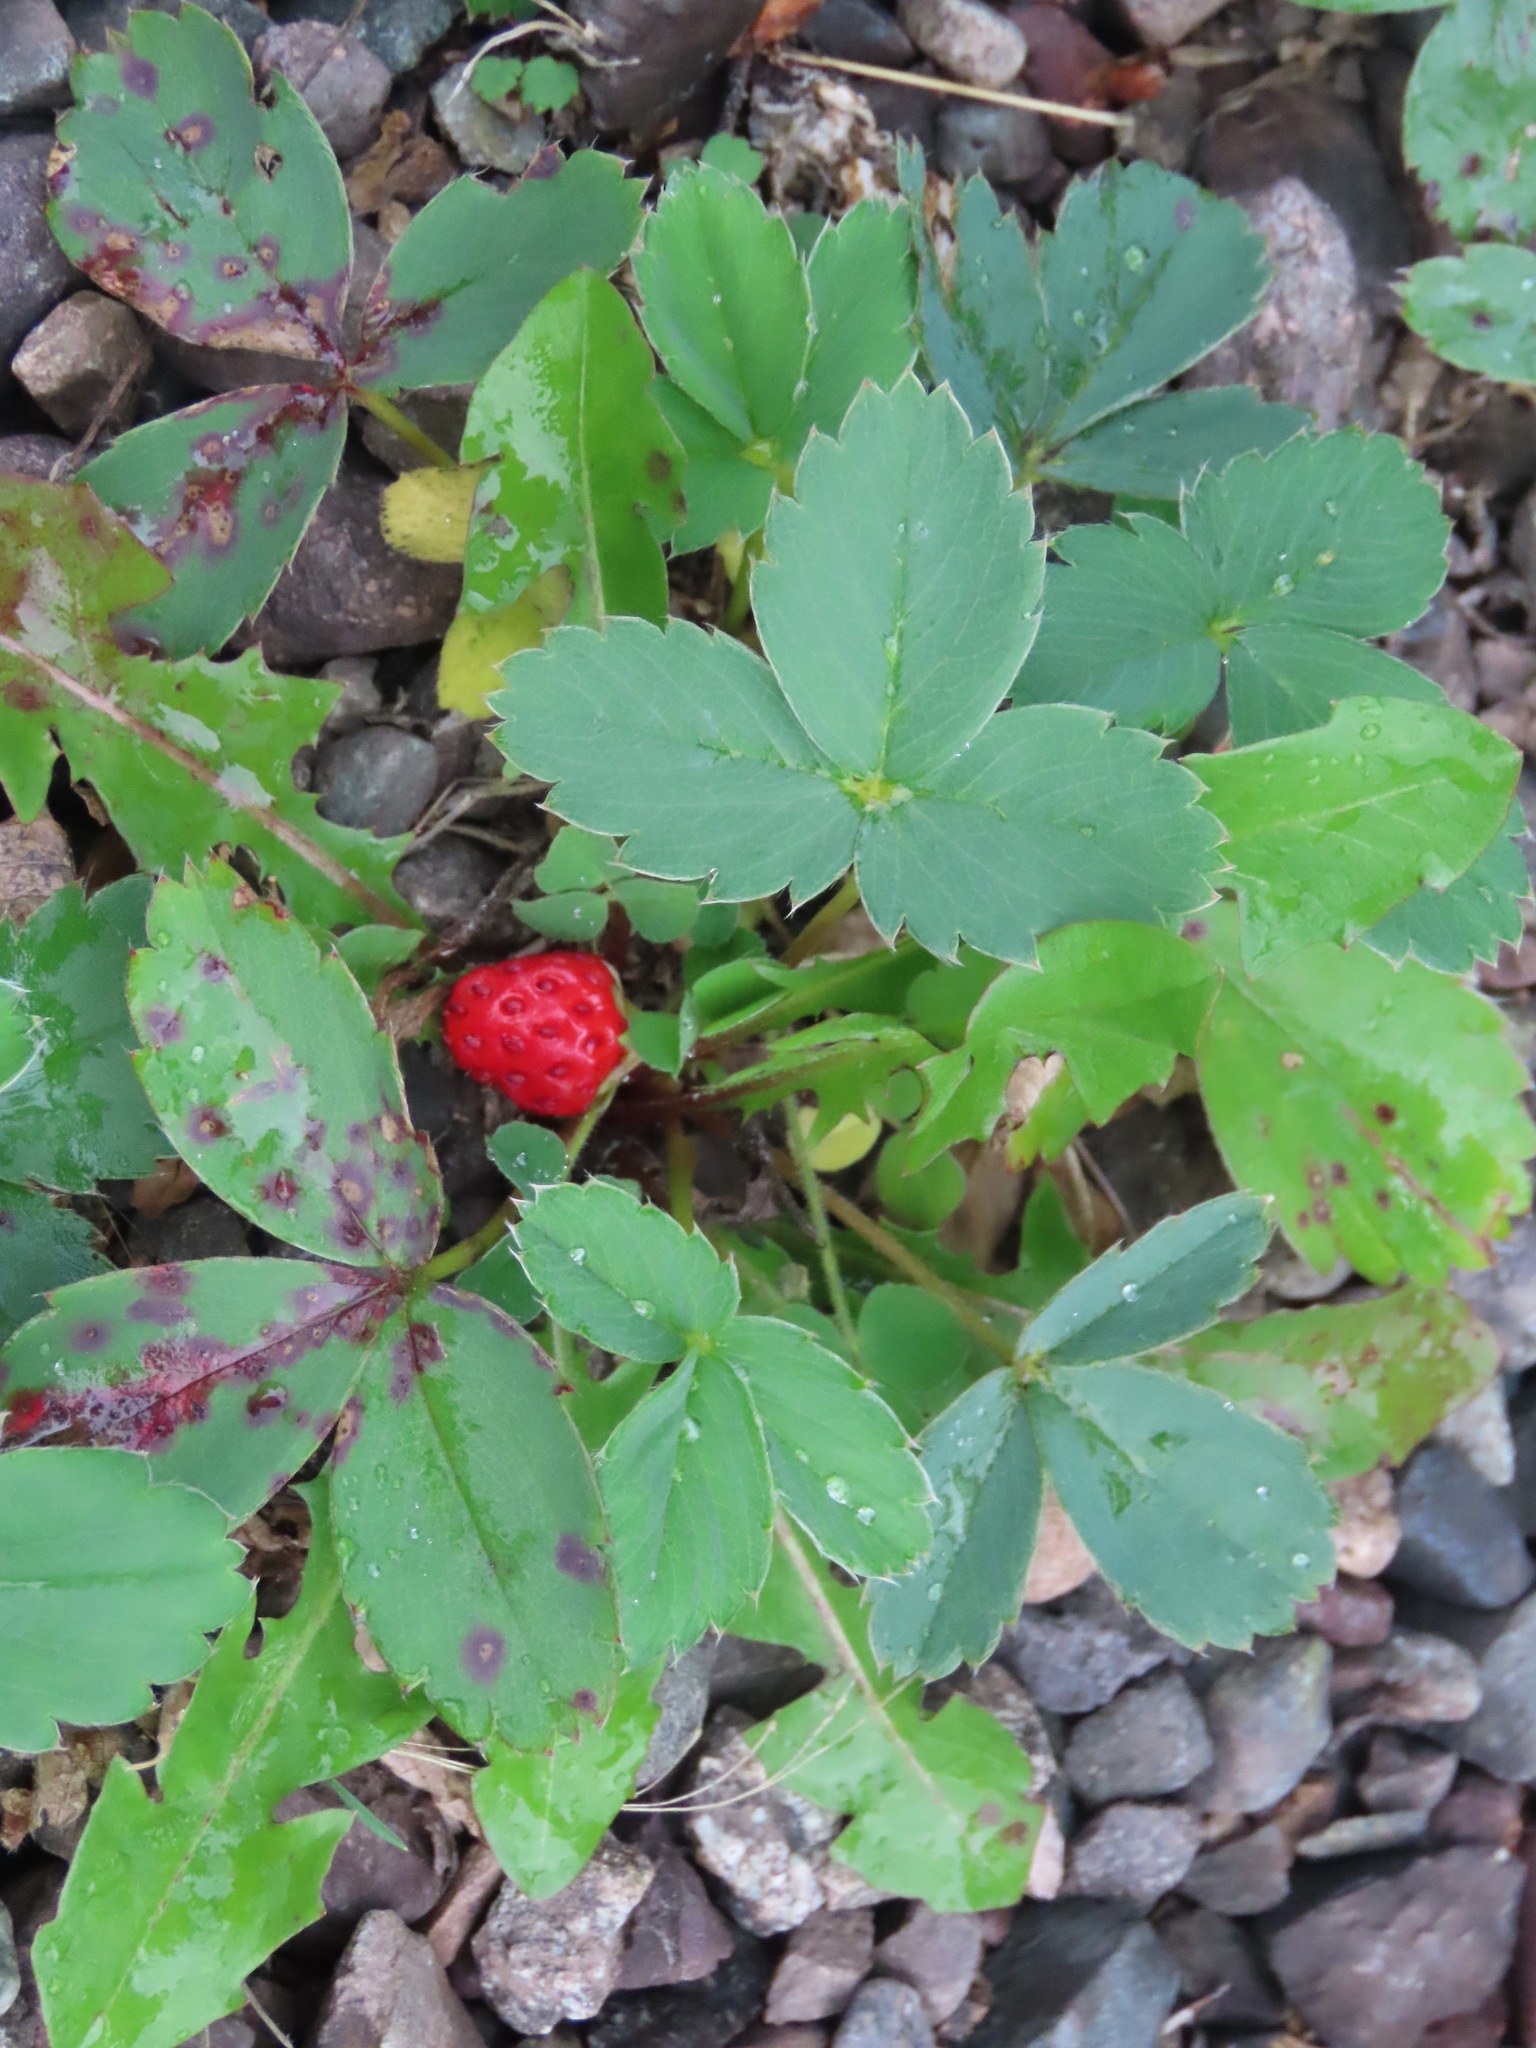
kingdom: Plantae
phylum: Tracheophyta
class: Magnoliopsida
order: Rosales
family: Rosaceae
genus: Fragaria
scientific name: Fragaria virginiana
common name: Thickleaved wild strawberry
